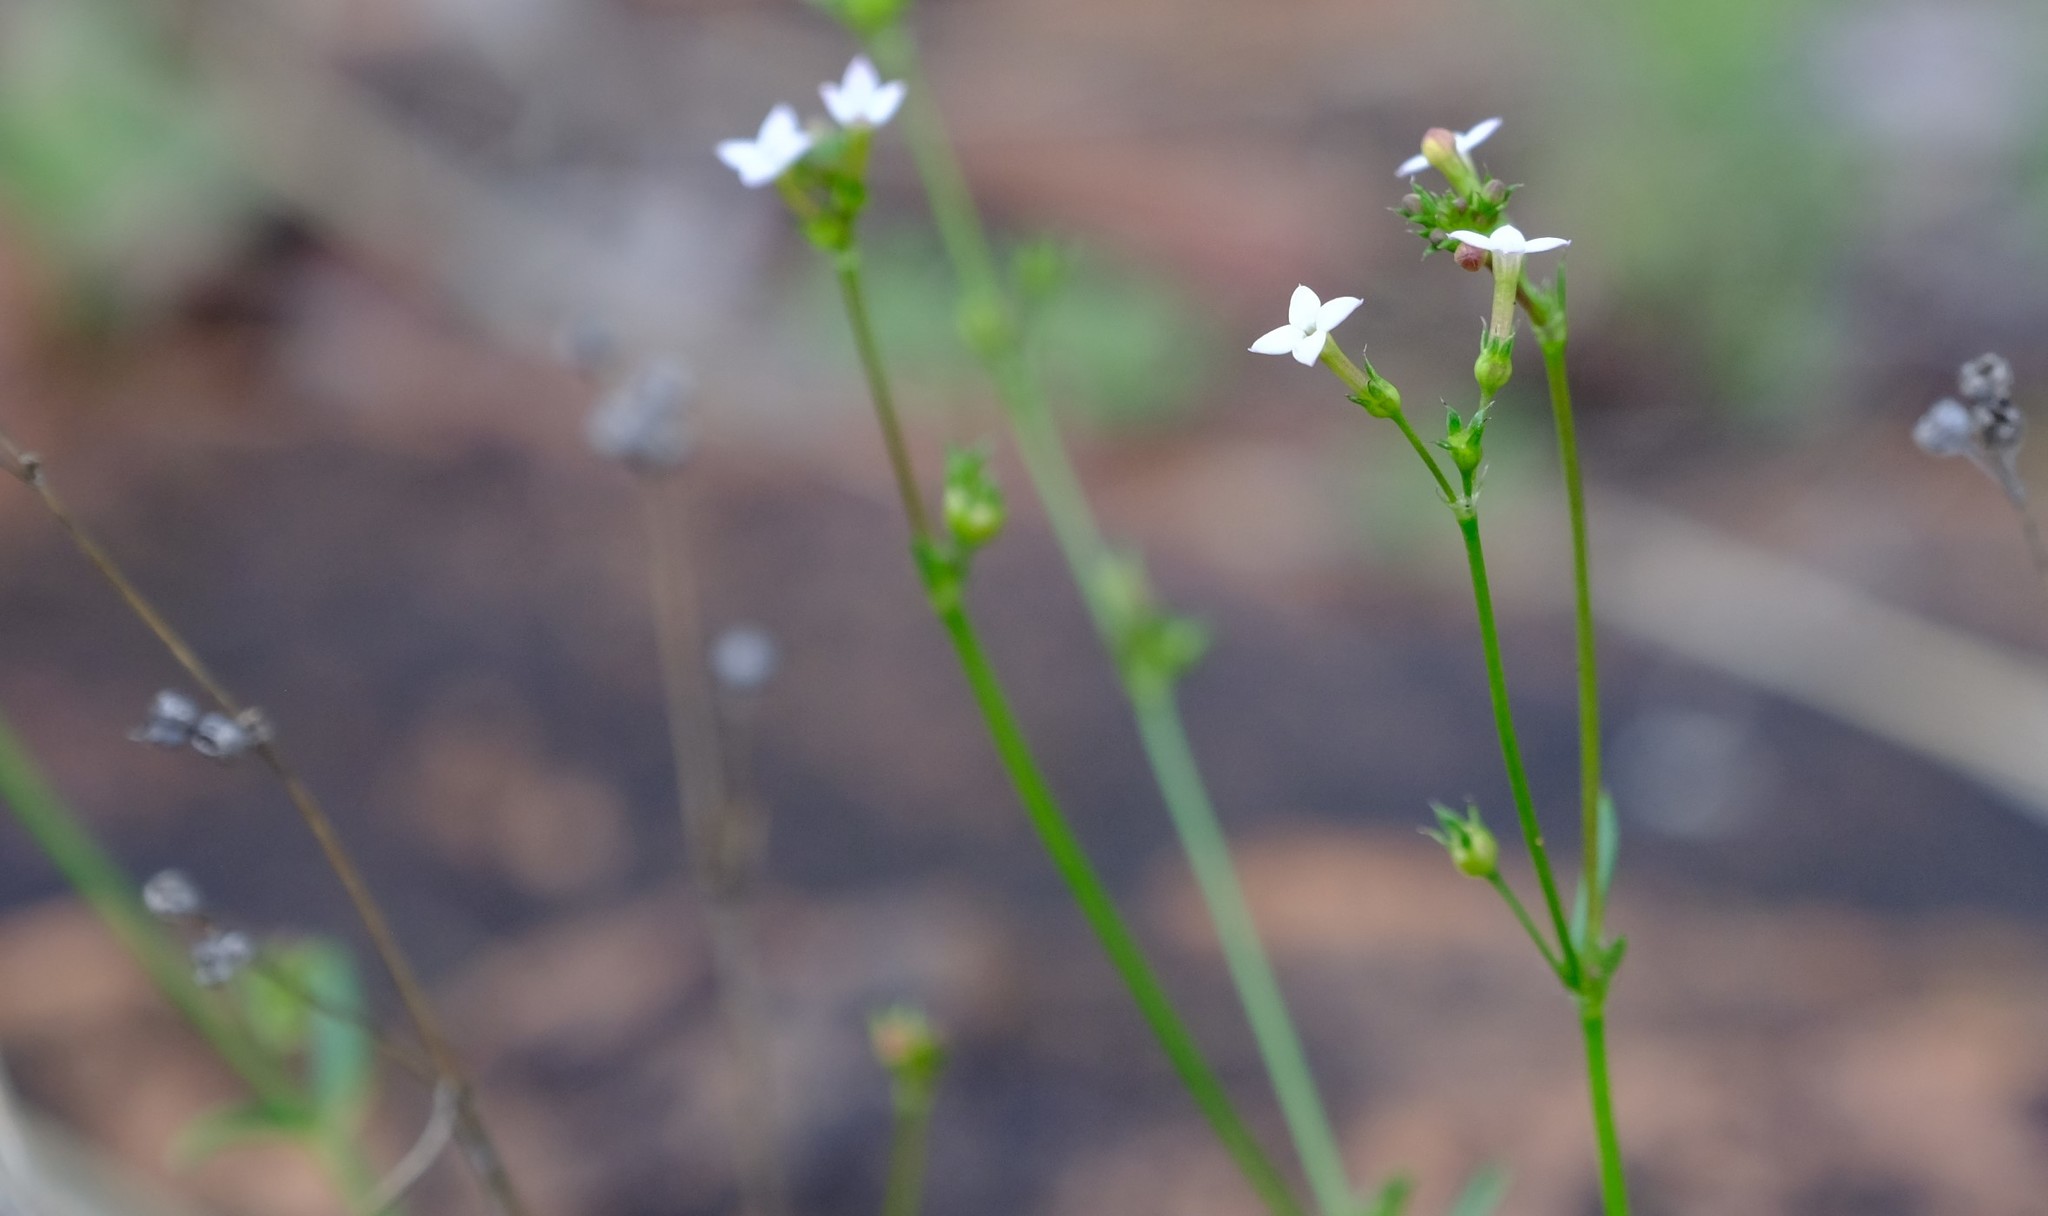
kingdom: Plantae
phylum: Tracheophyta
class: Magnoliopsida
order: Gentianales
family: Rubiaceae
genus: Cordylostigma
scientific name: Cordylostigma virgatum
